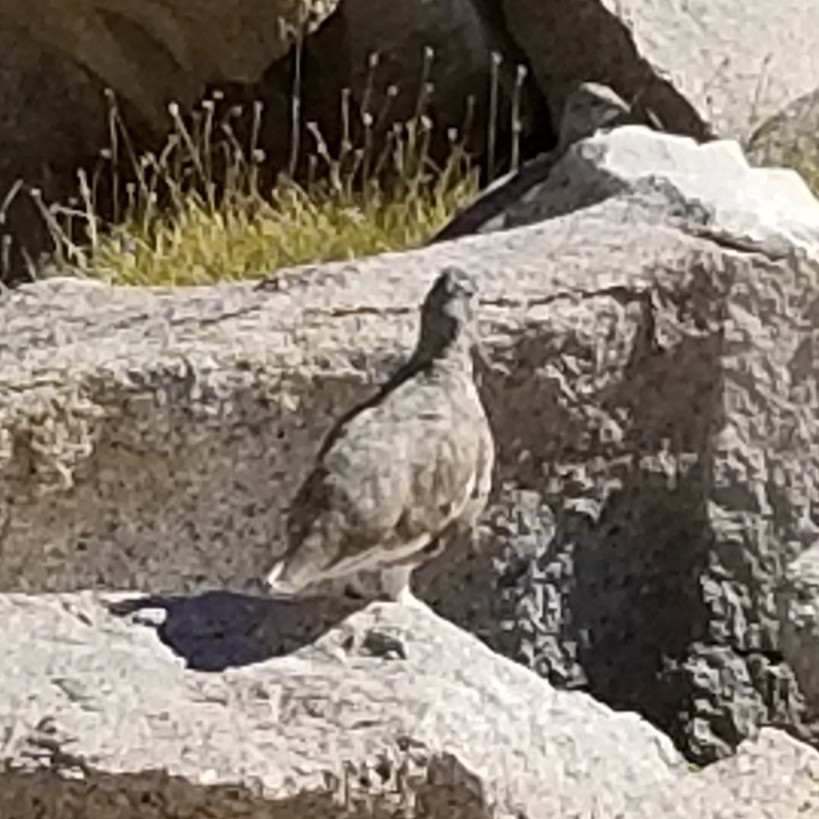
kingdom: Animalia
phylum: Chordata
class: Aves
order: Galliformes
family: Phasianidae
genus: Lagopus
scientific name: Lagopus leucura
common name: White-tailed ptarmigan
